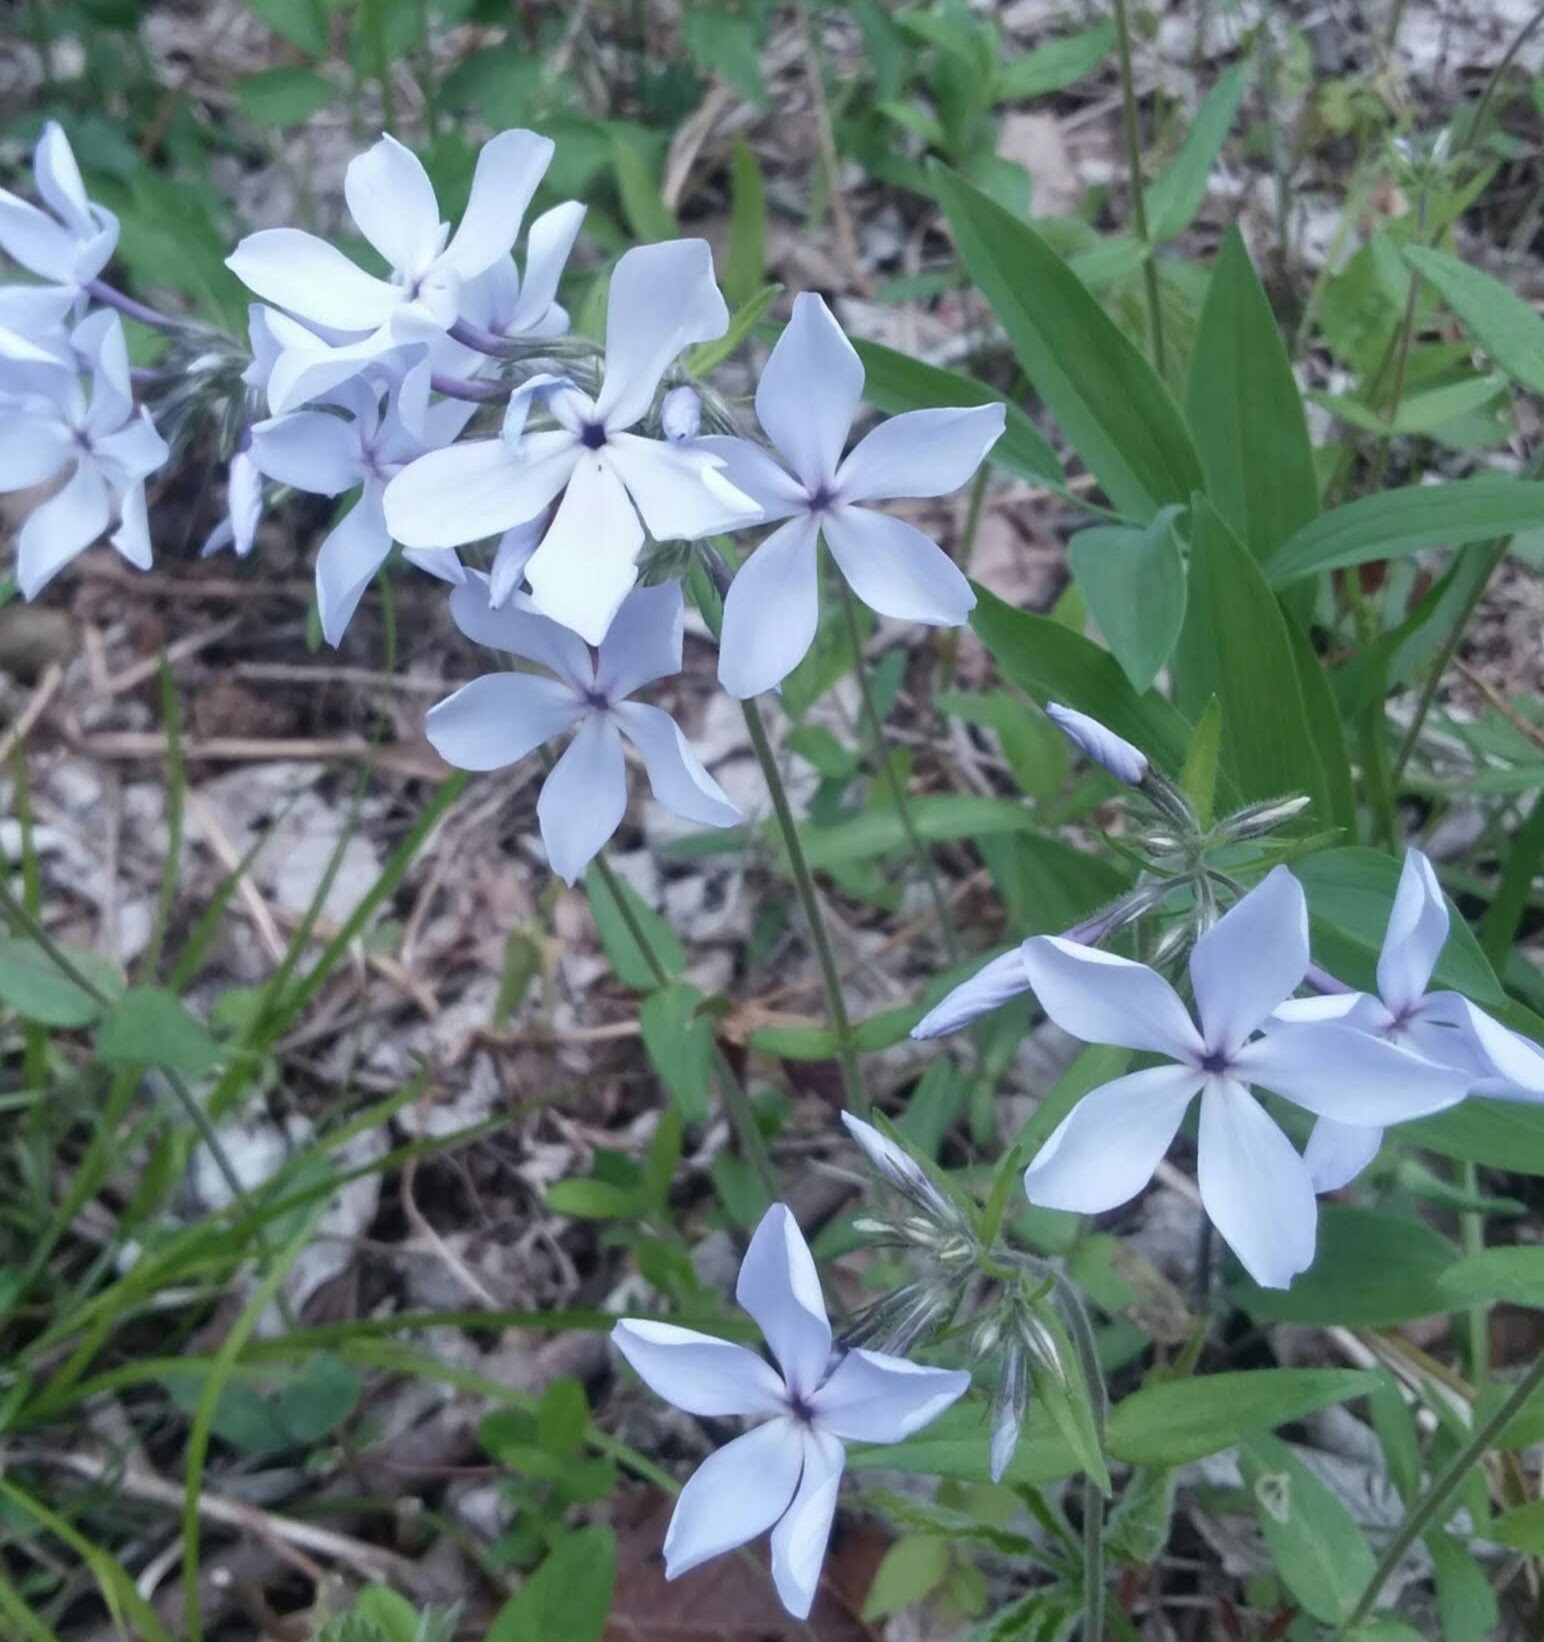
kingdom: Plantae
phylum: Tracheophyta
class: Magnoliopsida
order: Ericales
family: Polemoniaceae
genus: Phlox
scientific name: Phlox divaricata
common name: Blue phlox
